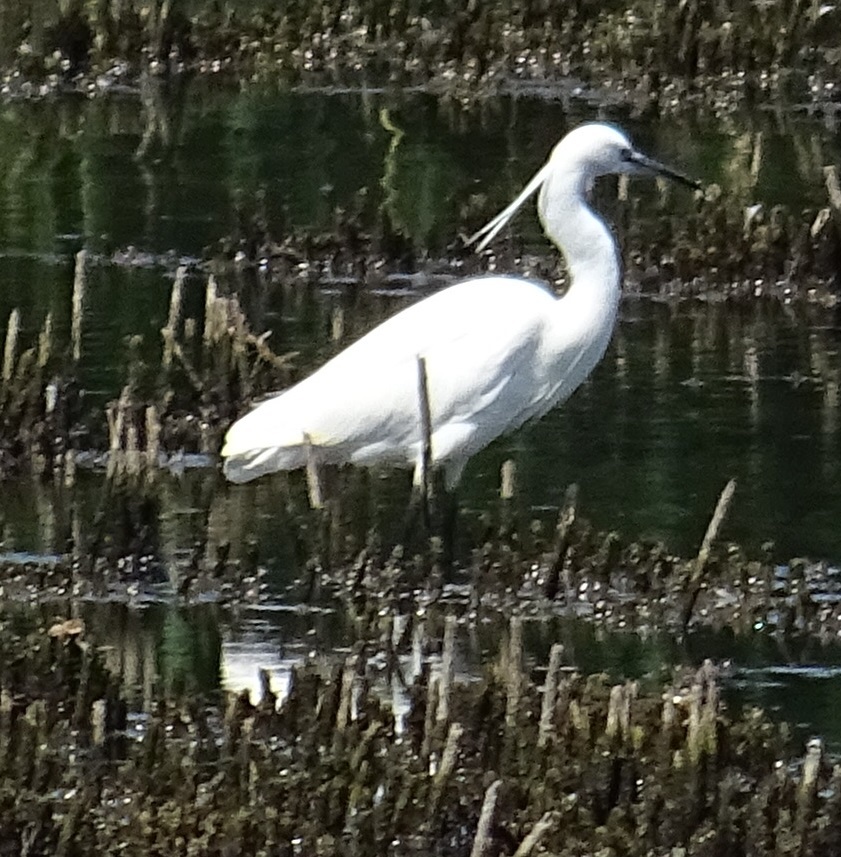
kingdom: Animalia
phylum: Chordata
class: Aves
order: Pelecaniformes
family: Ardeidae
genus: Egretta
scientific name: Egretta garzetta
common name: Little egret
